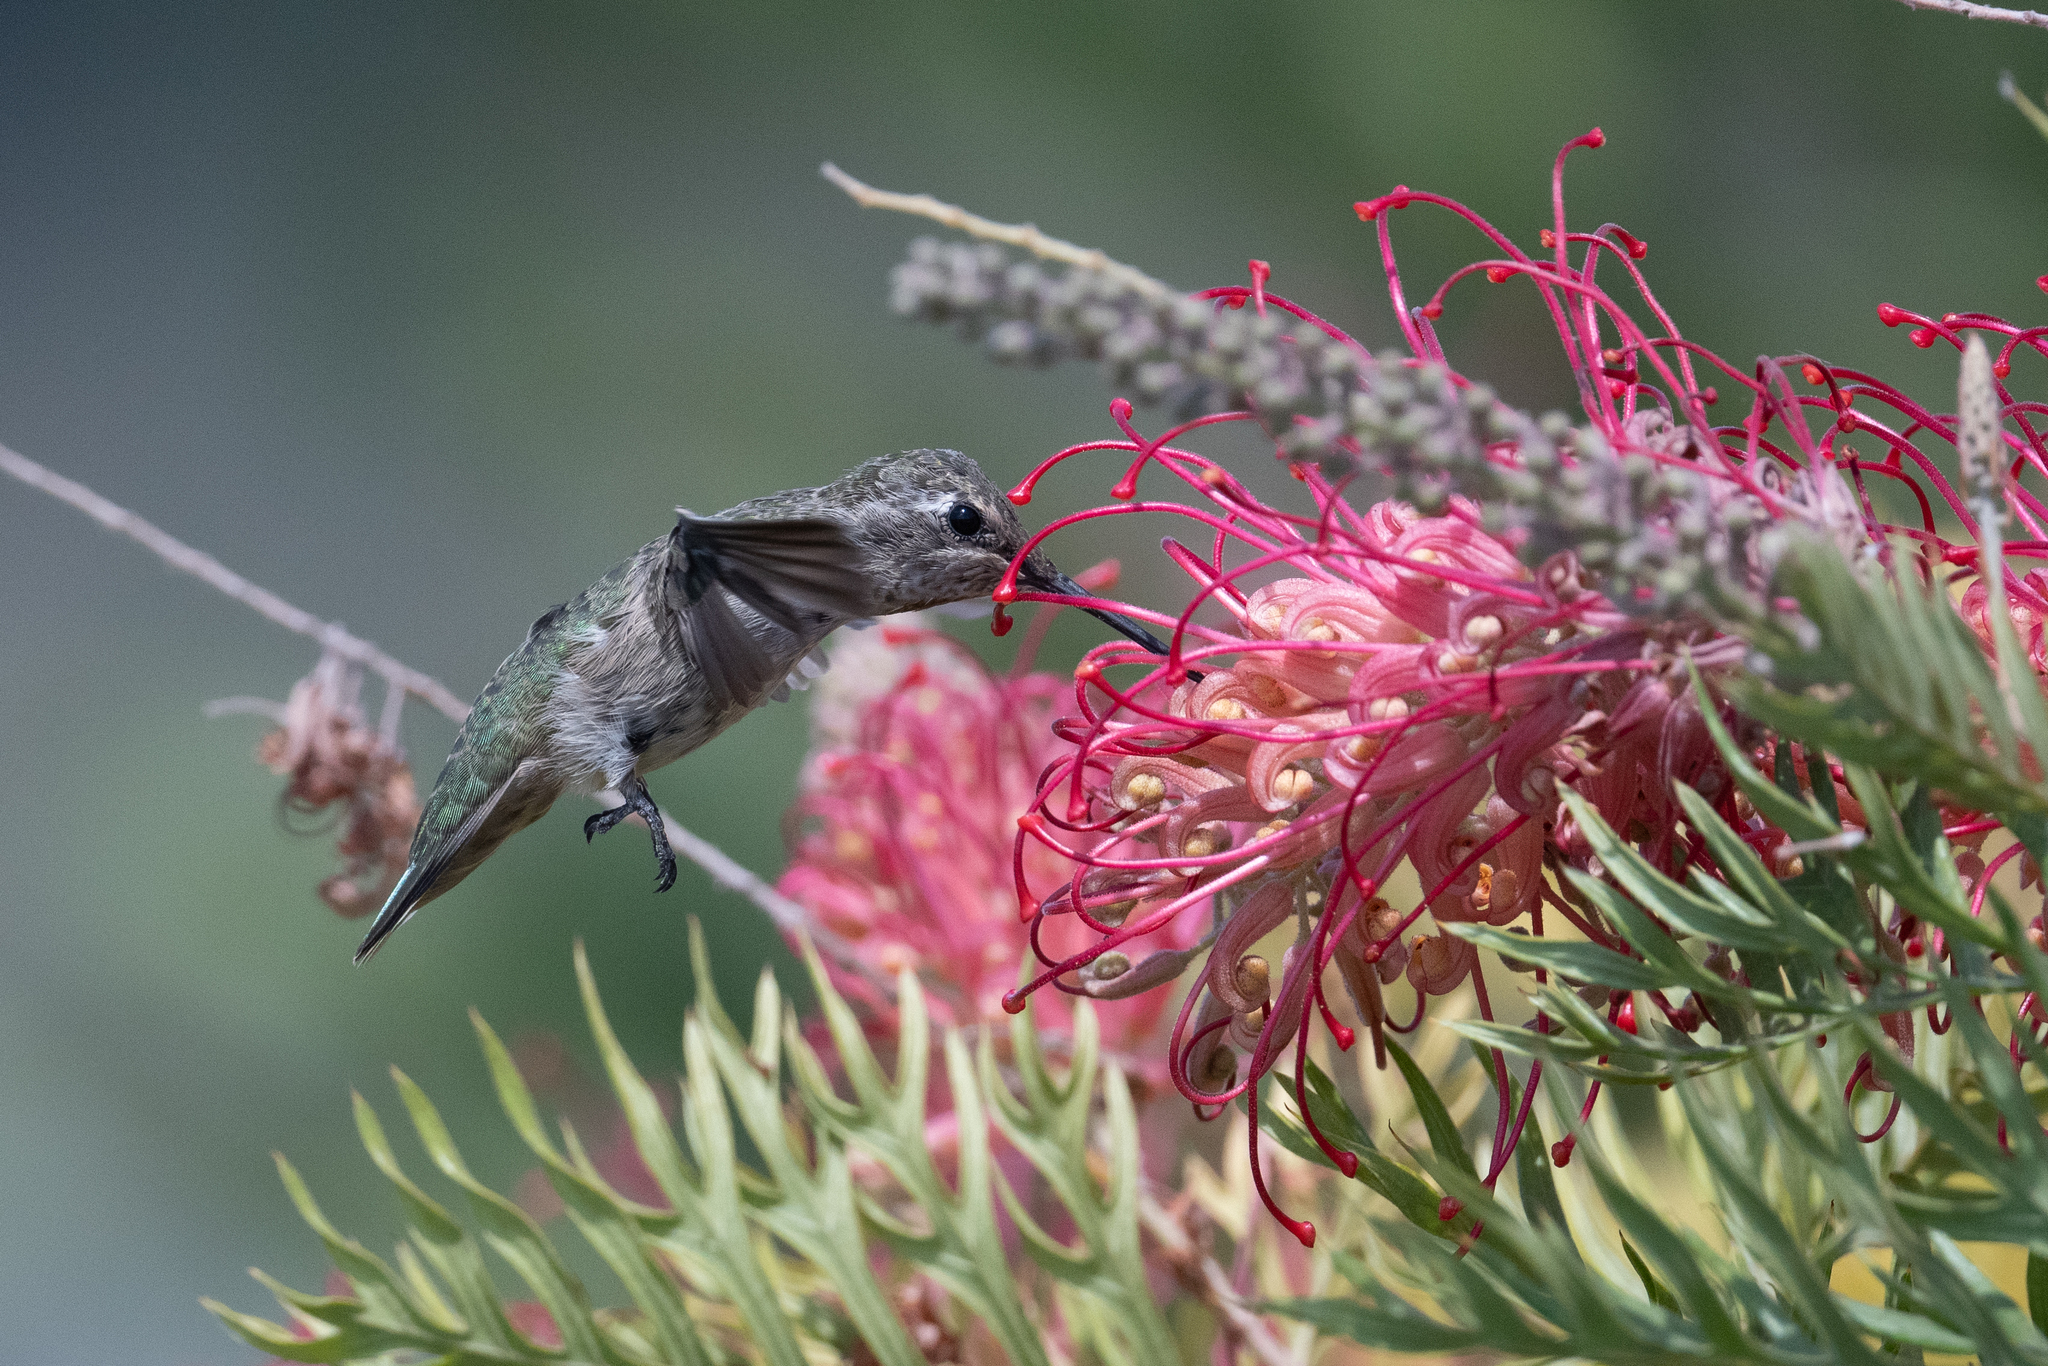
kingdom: Animalia
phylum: Chordata
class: Aves
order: Apodiformes
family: Trochilidae
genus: Calypte
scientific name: Calypte anna
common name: Anna's hummingbird
